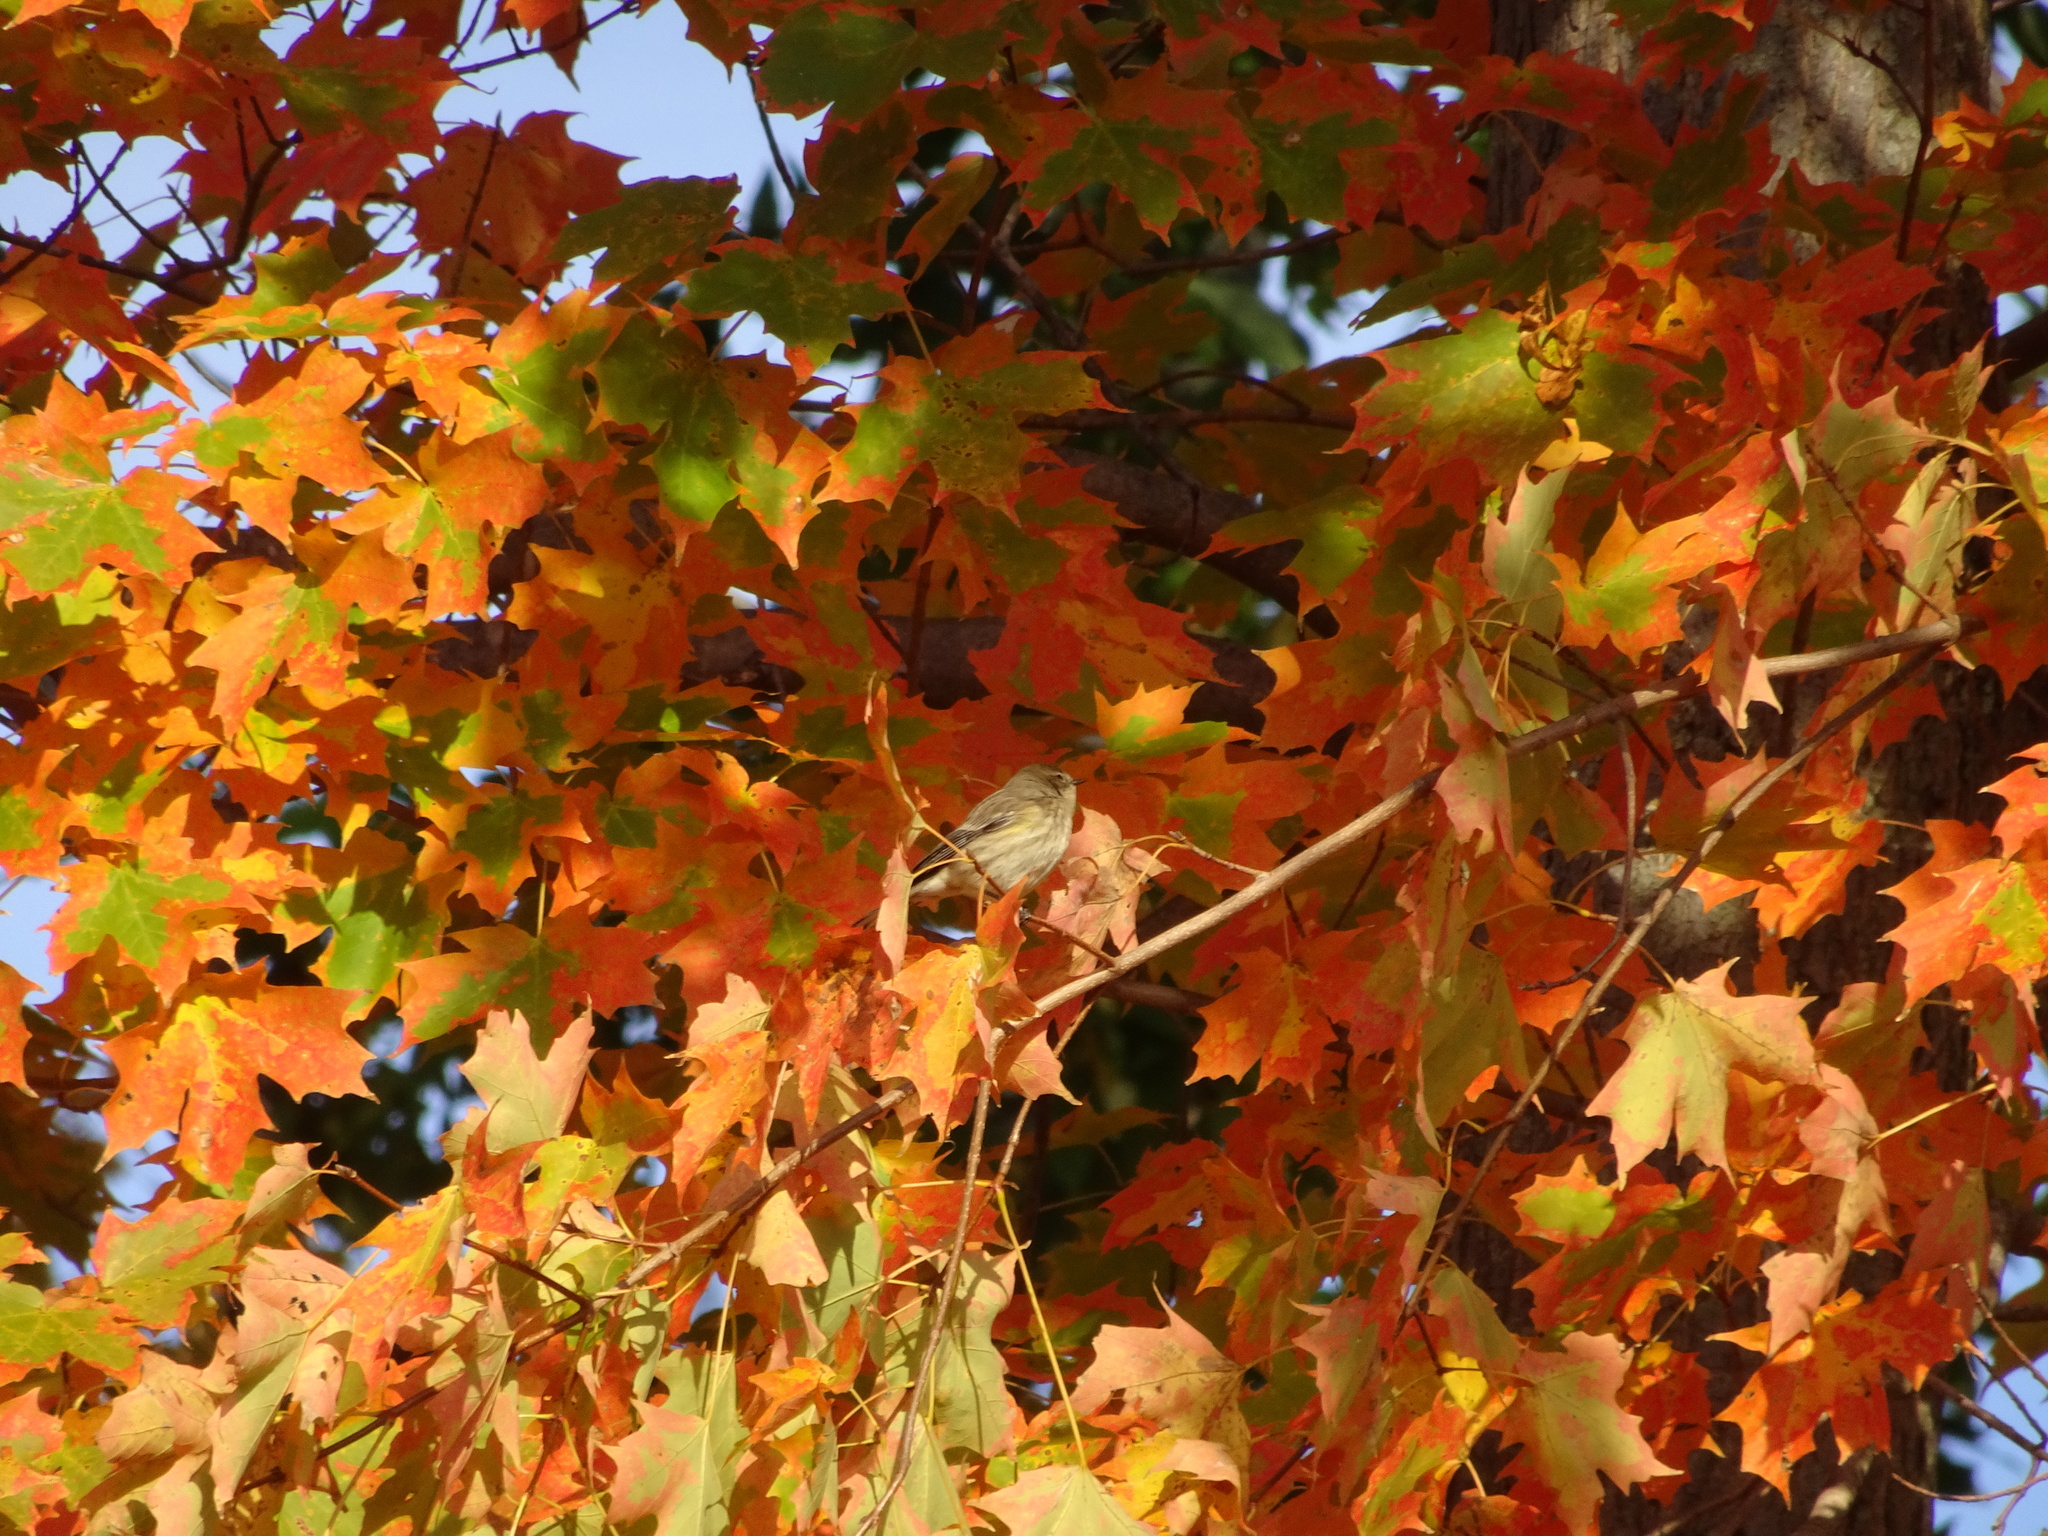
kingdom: Animalia
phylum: Chordata
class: Aves
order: Passeriformes
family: Parulidae
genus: Setophaga
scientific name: Setophaga coronata
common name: Myrtle warbler
